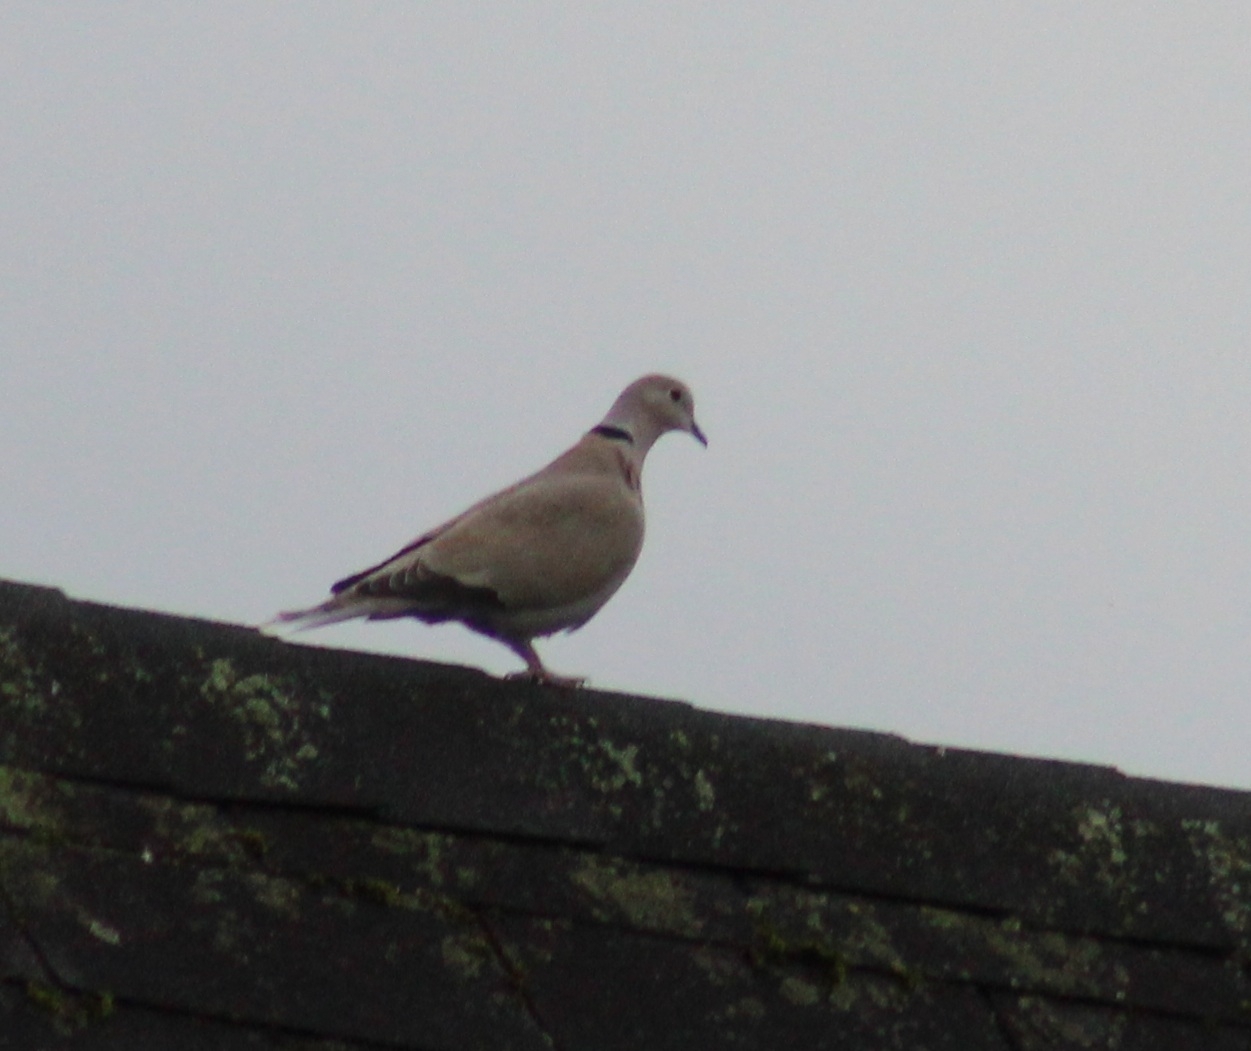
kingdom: Animalia
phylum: Chordata
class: Aves
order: Columbiformes
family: Columbidae
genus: Streptopelia
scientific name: Streptopelia decaocto
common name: Eurasian collared dove
